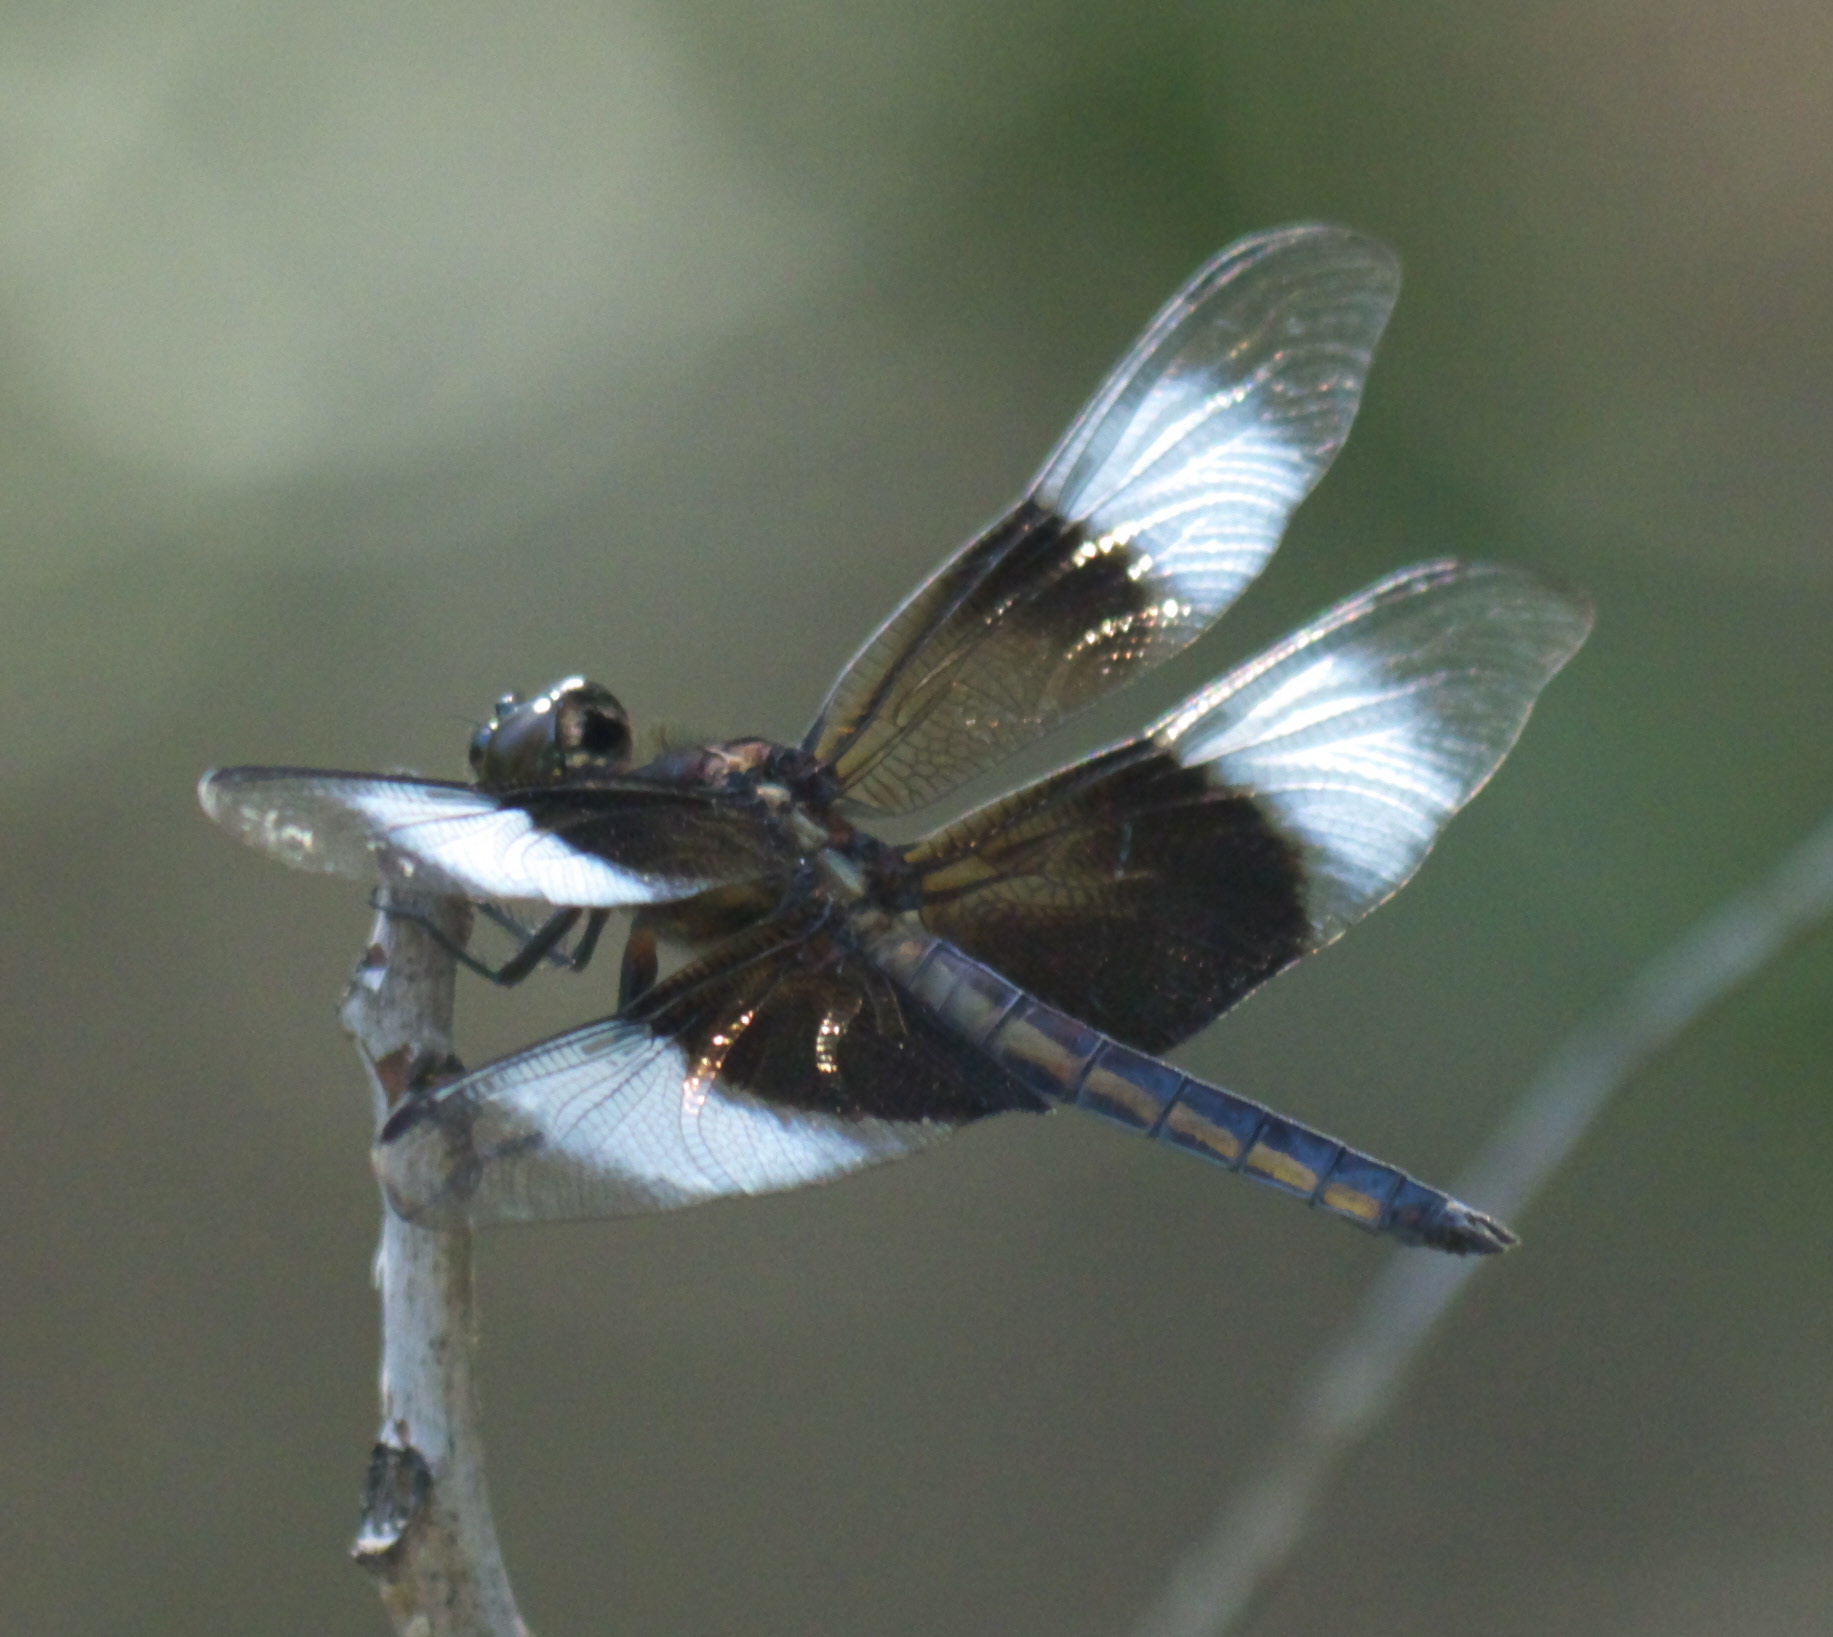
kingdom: Animalia
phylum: Arthropoda
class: Insecta
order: Odonata
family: Libellulidae
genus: Libellula
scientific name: Libellula luctuosa
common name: Widow skimmer
